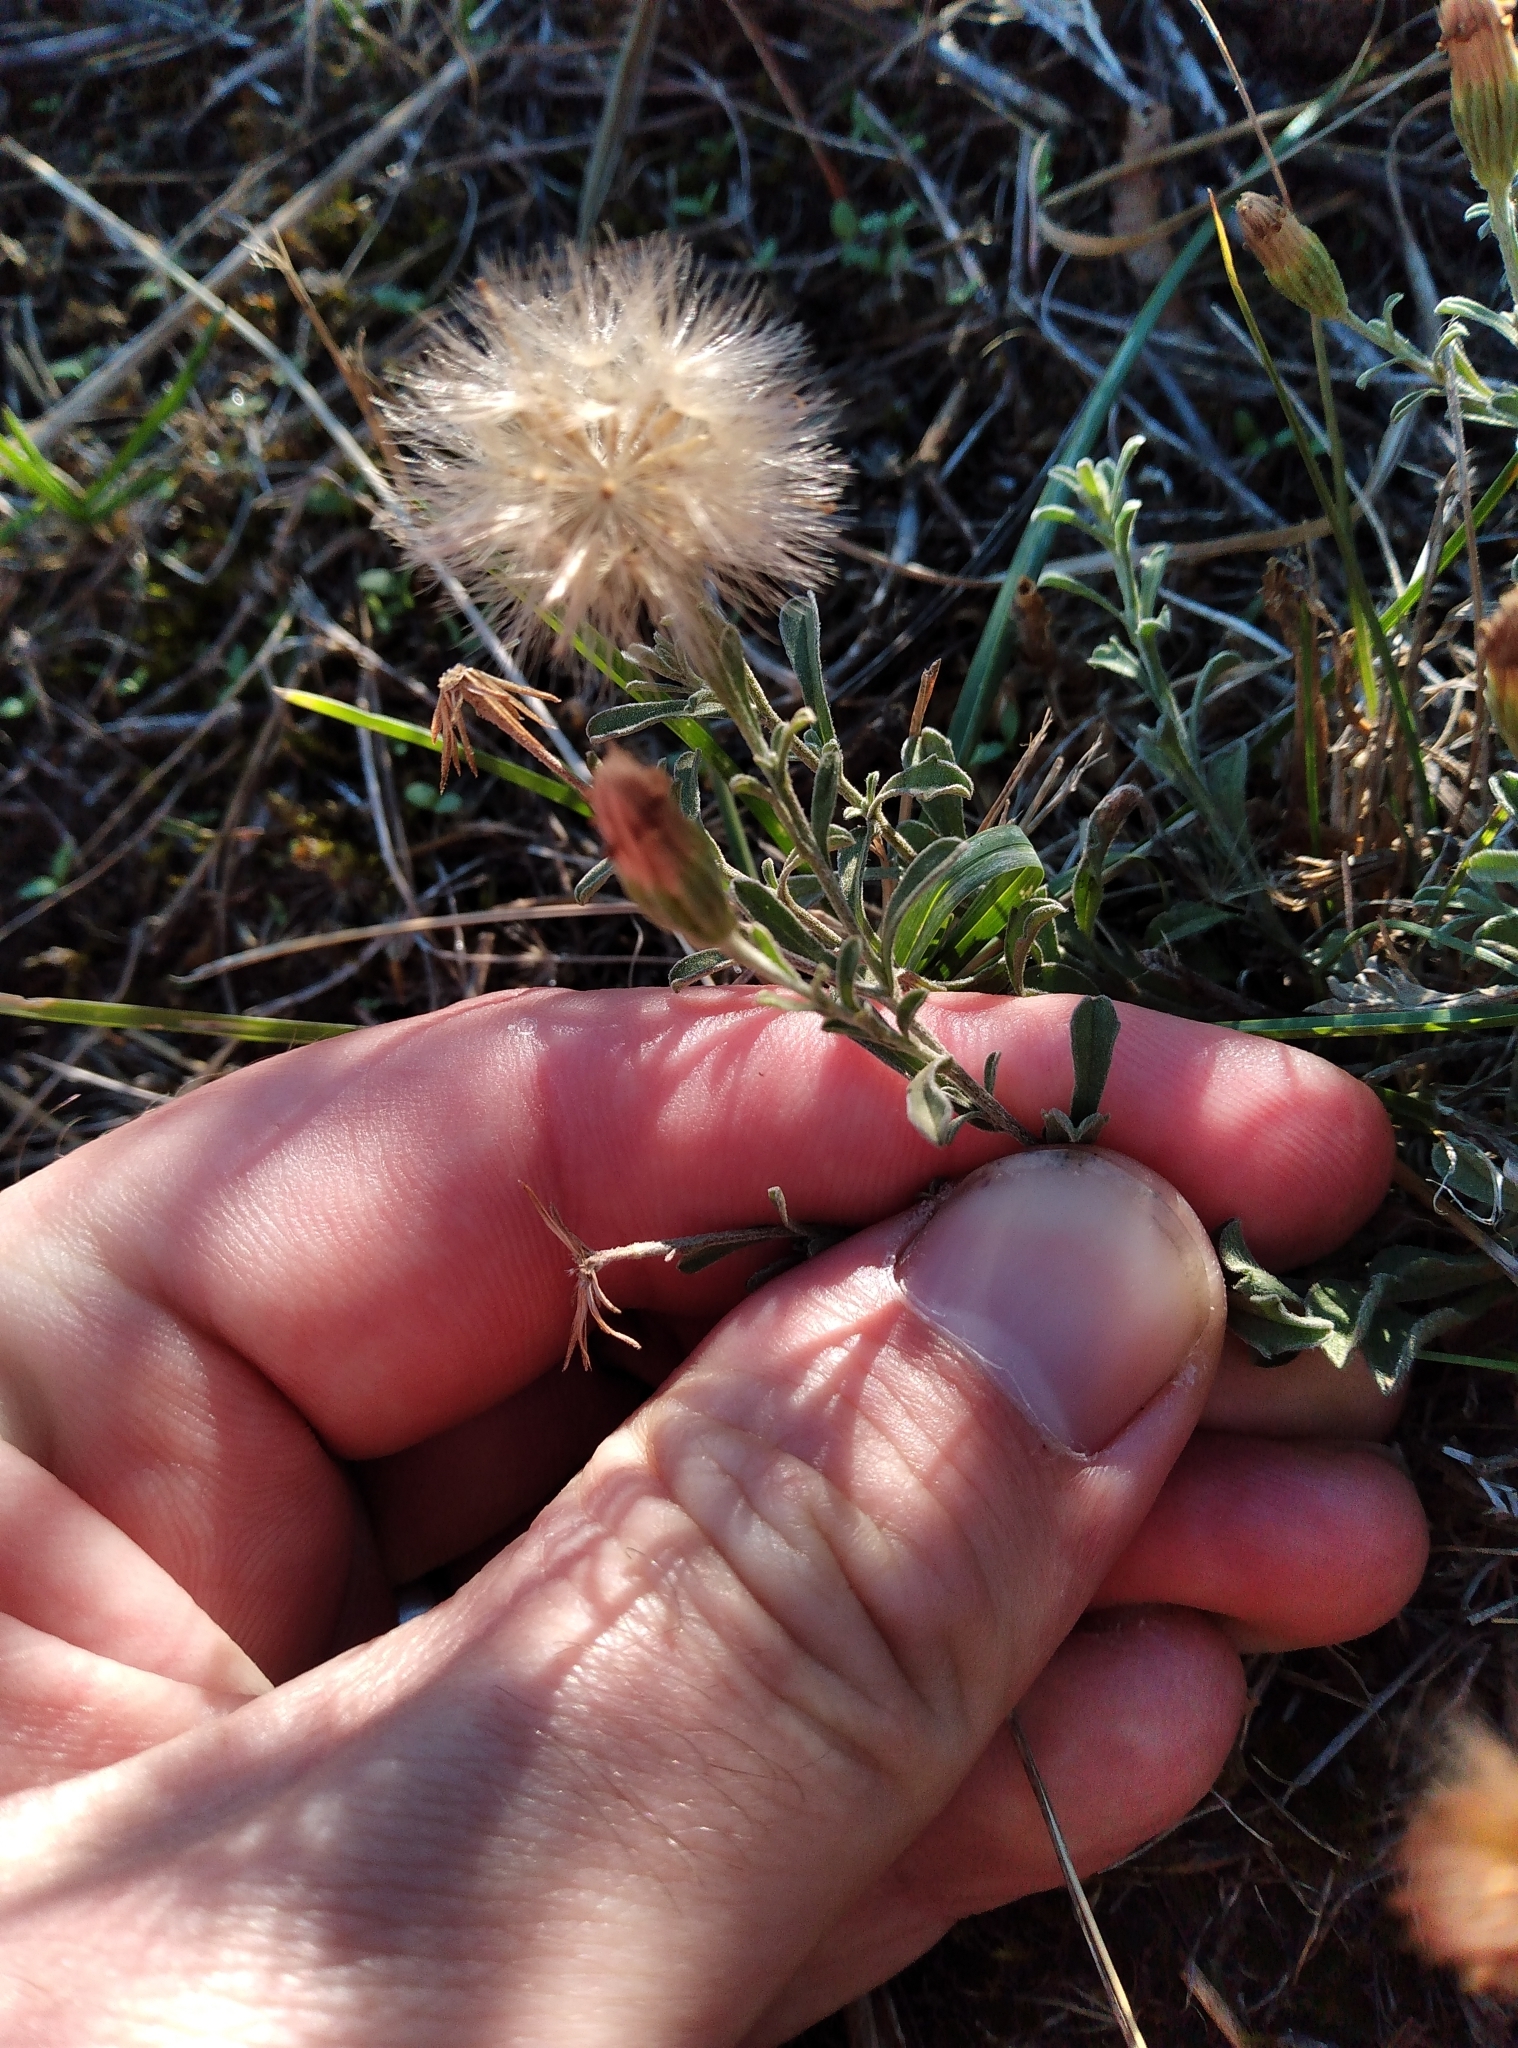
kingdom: Plantae
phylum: Tracheophyta
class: Magnoliopsida
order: Asterales
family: Asteraceae
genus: Vittadinia
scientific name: Vittadinia gracilis
